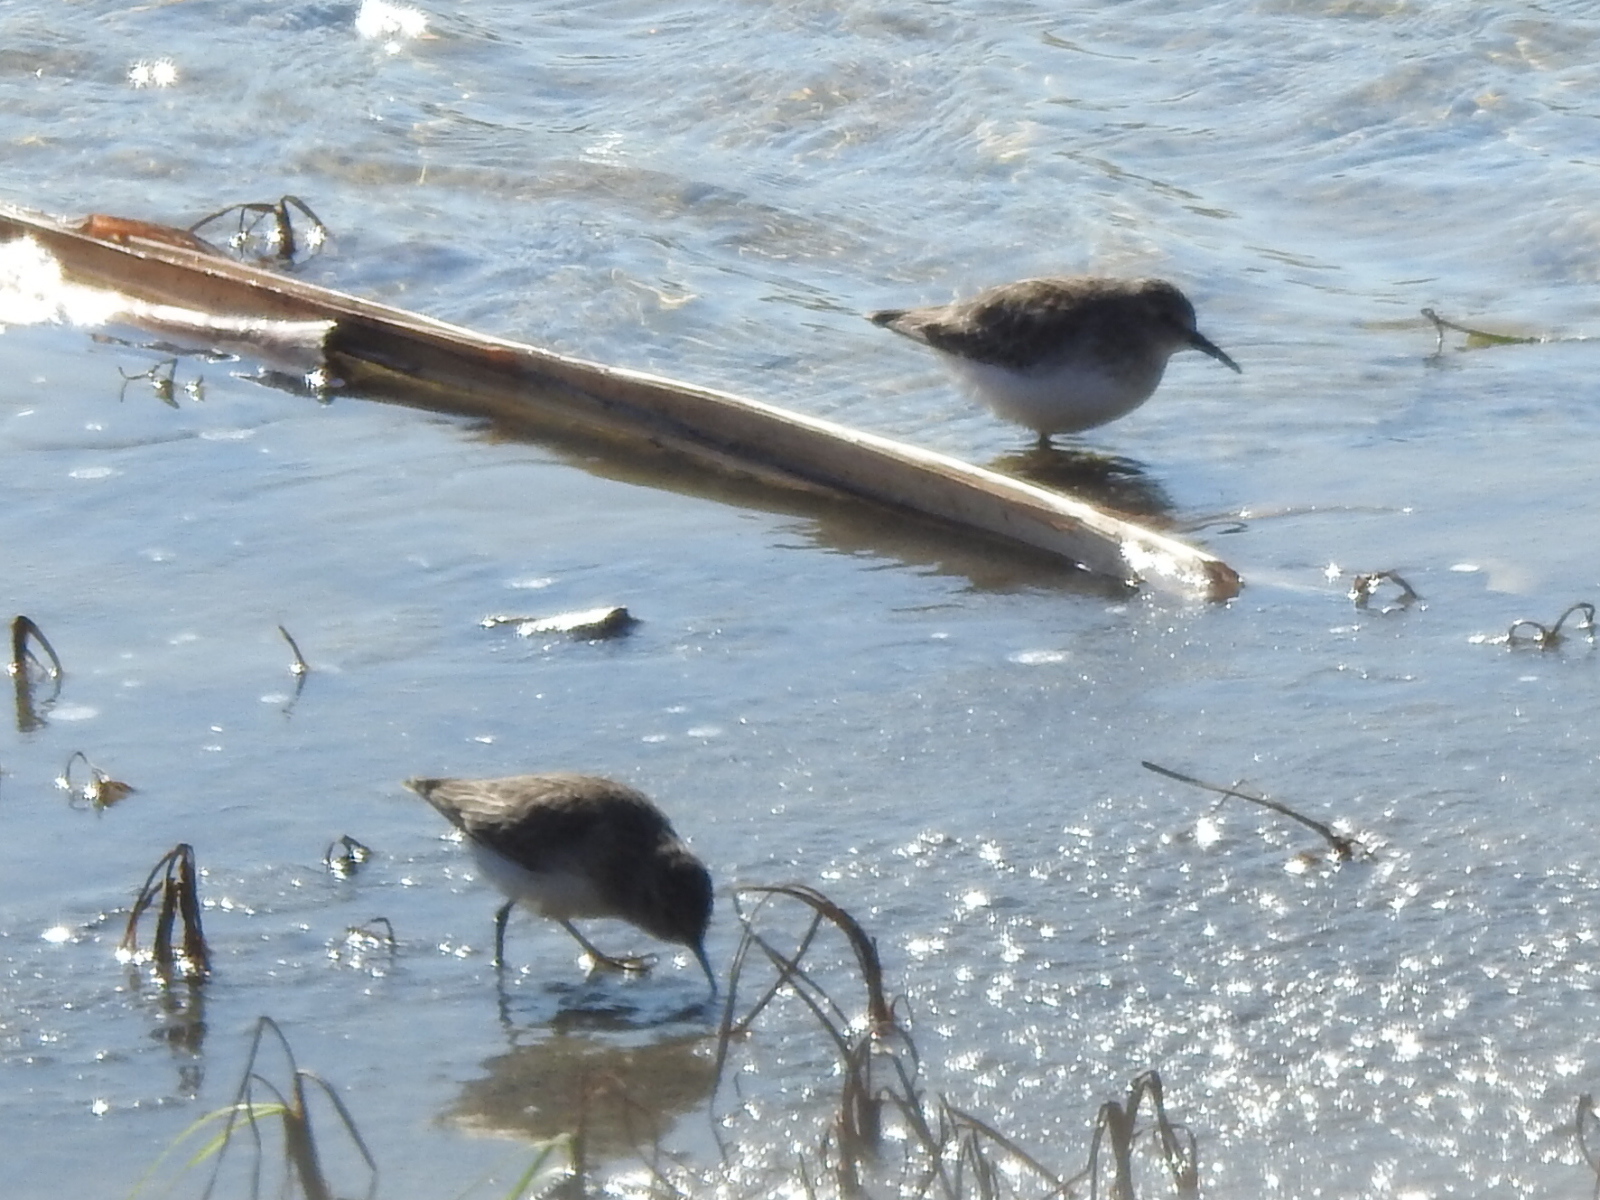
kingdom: Animalia
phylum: Chordata
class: Aves
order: Charadriiformes
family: Scolopacidae
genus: Calidris
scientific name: Calidris minutilla
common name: Least sandpiper
